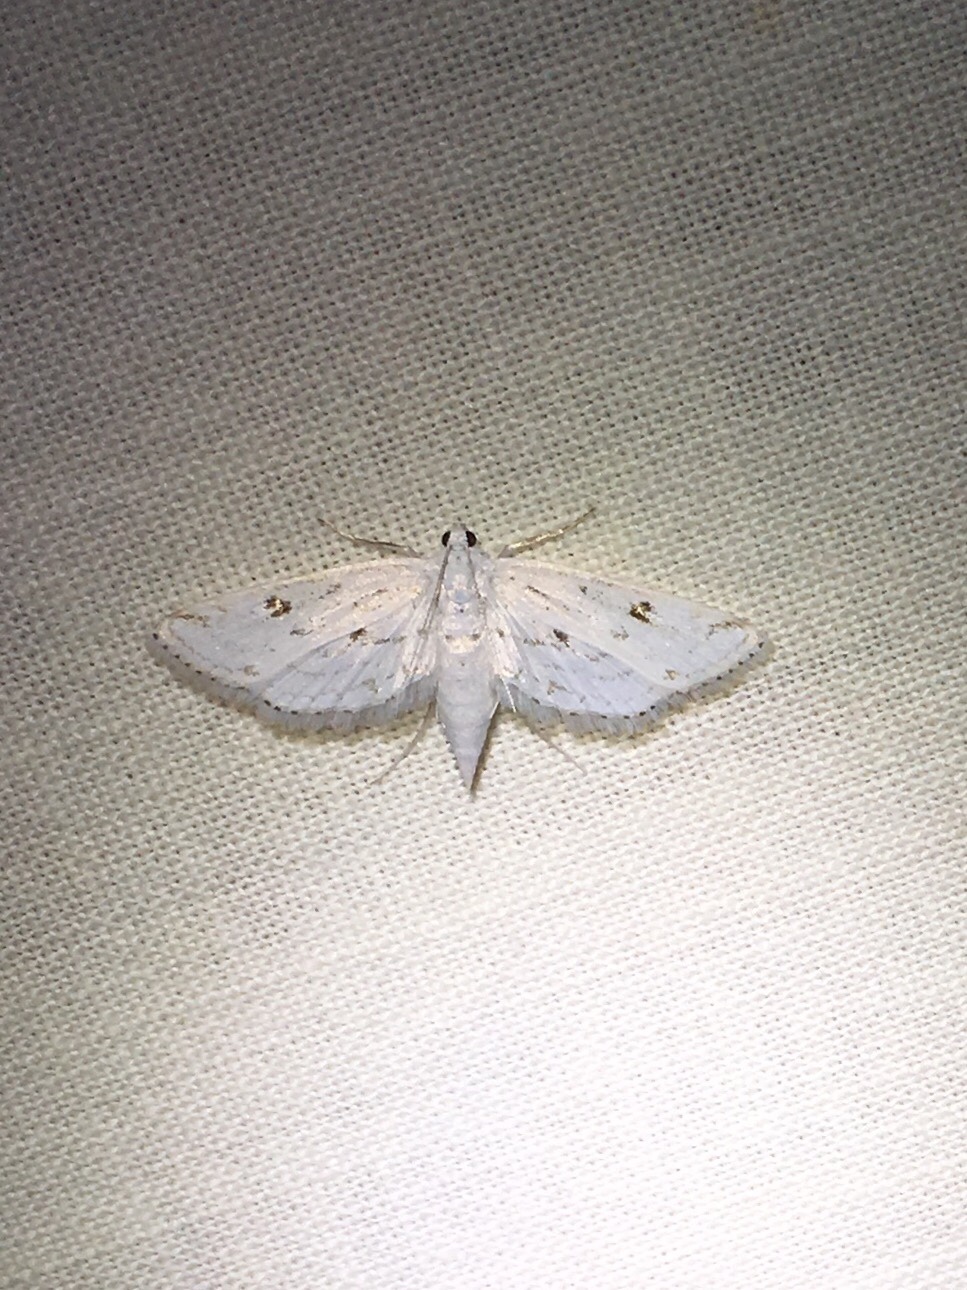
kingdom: Animalia
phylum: Arthropoda
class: Insecta
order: Lepidoptera
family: Crambidae
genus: Parapoynx
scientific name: Parapoynx allionealis
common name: Bladderwort casemaker
